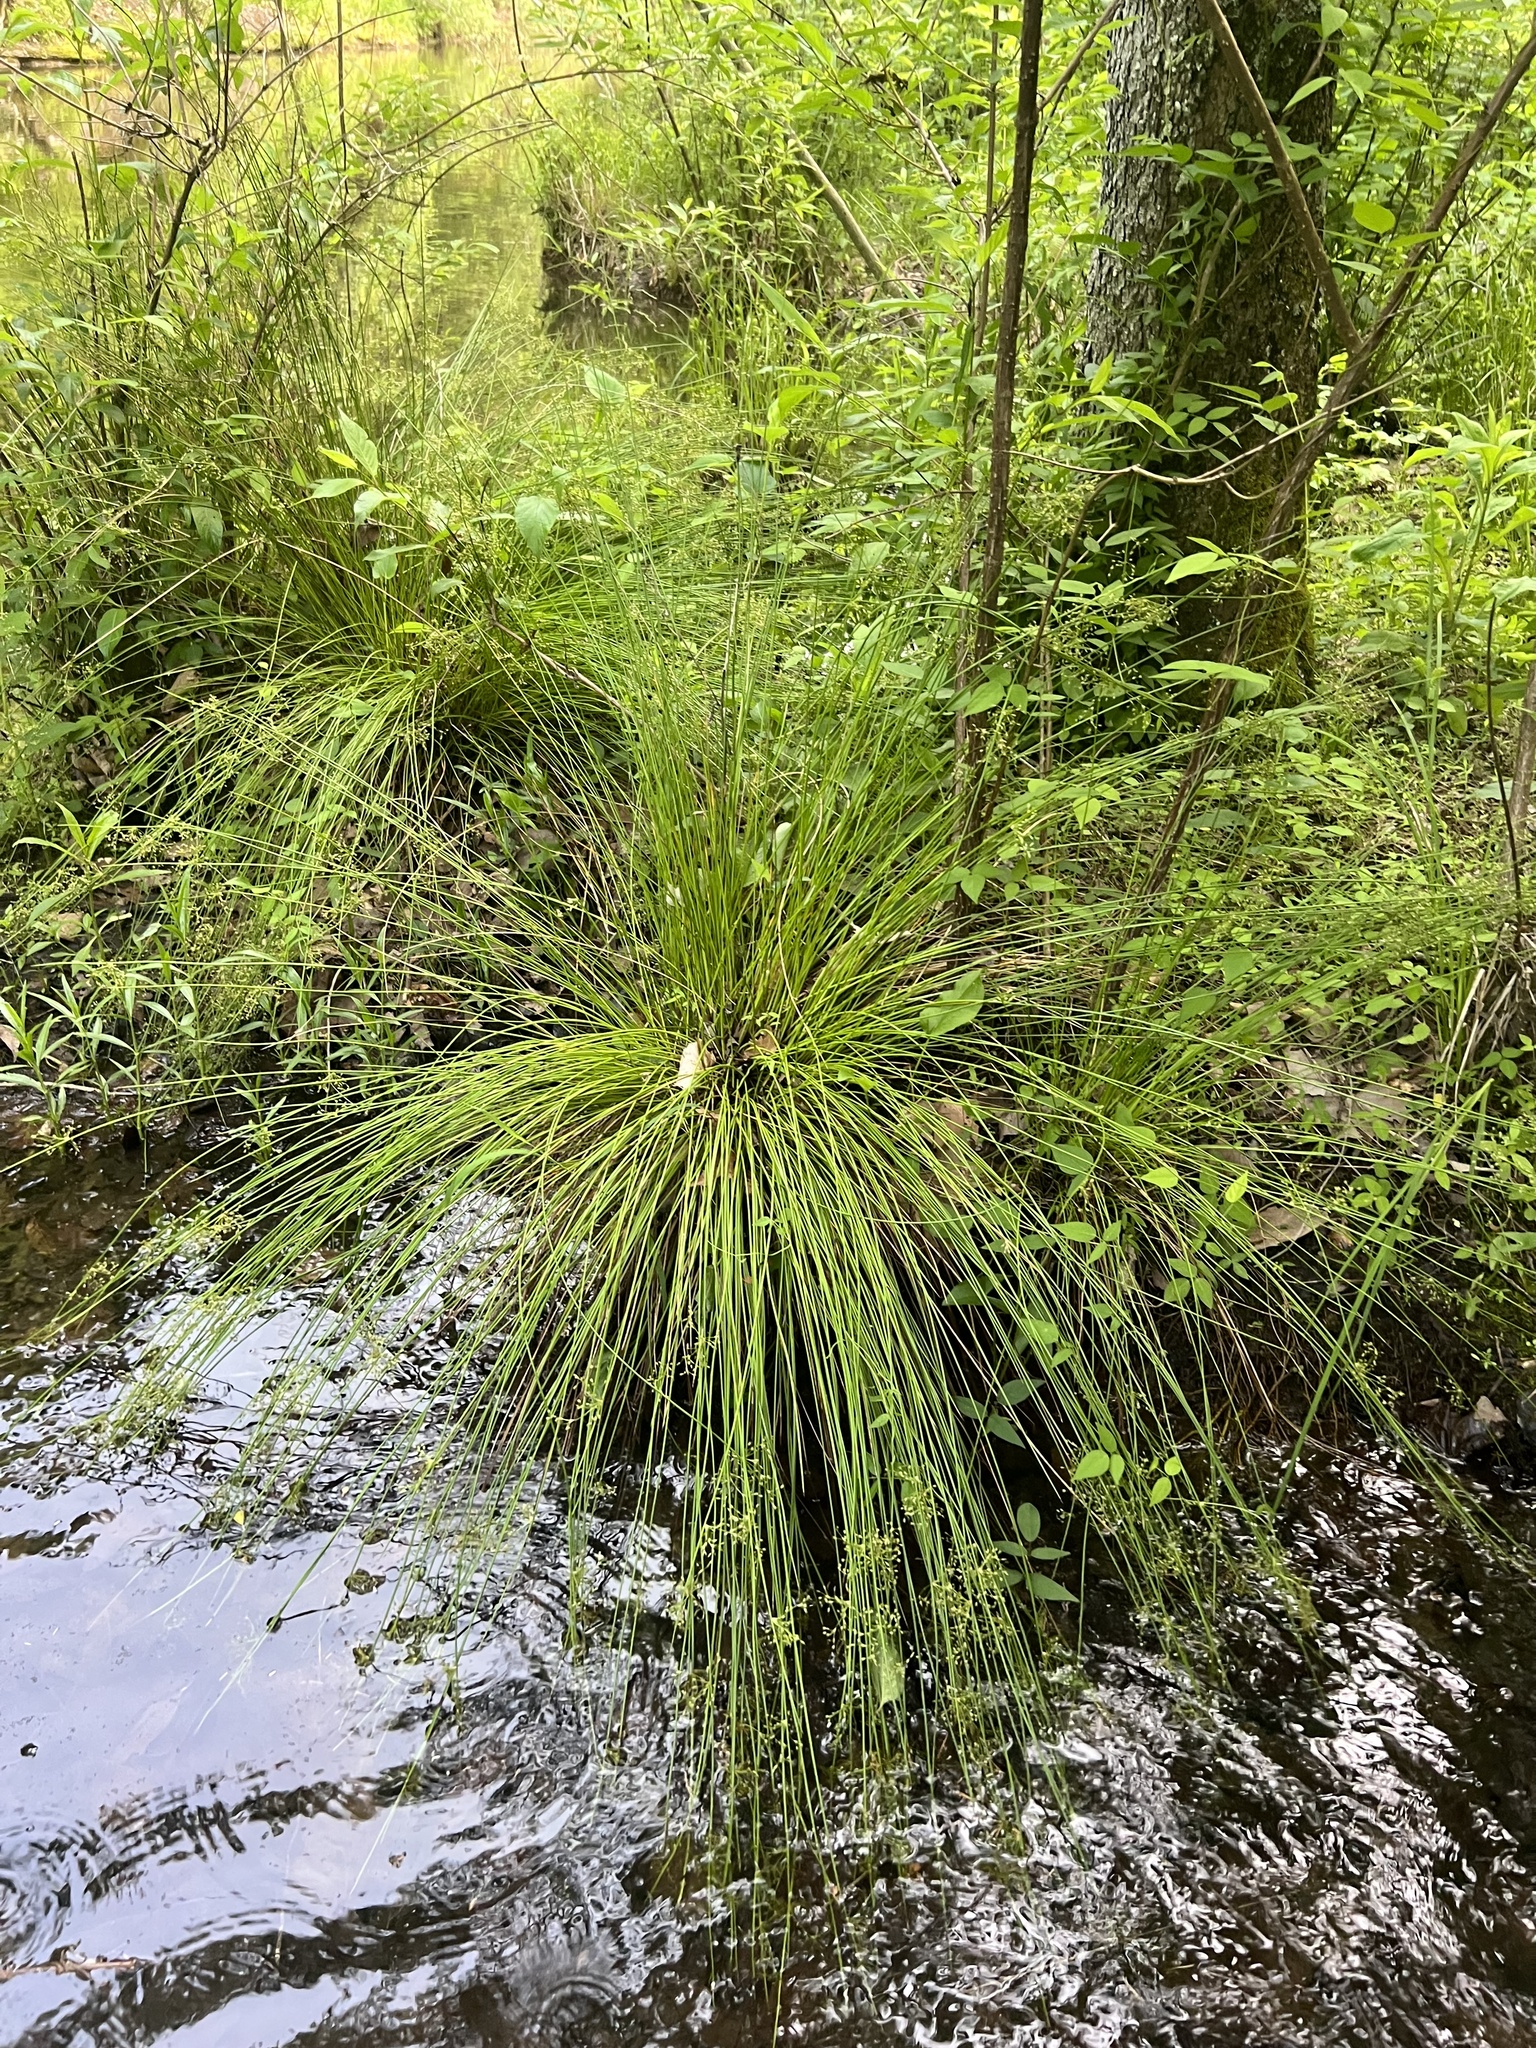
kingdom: Plantae
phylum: Tracheophyta
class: Liliopsida
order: Poales
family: Juncaceae
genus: Juncus
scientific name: Juncus coriaceus
